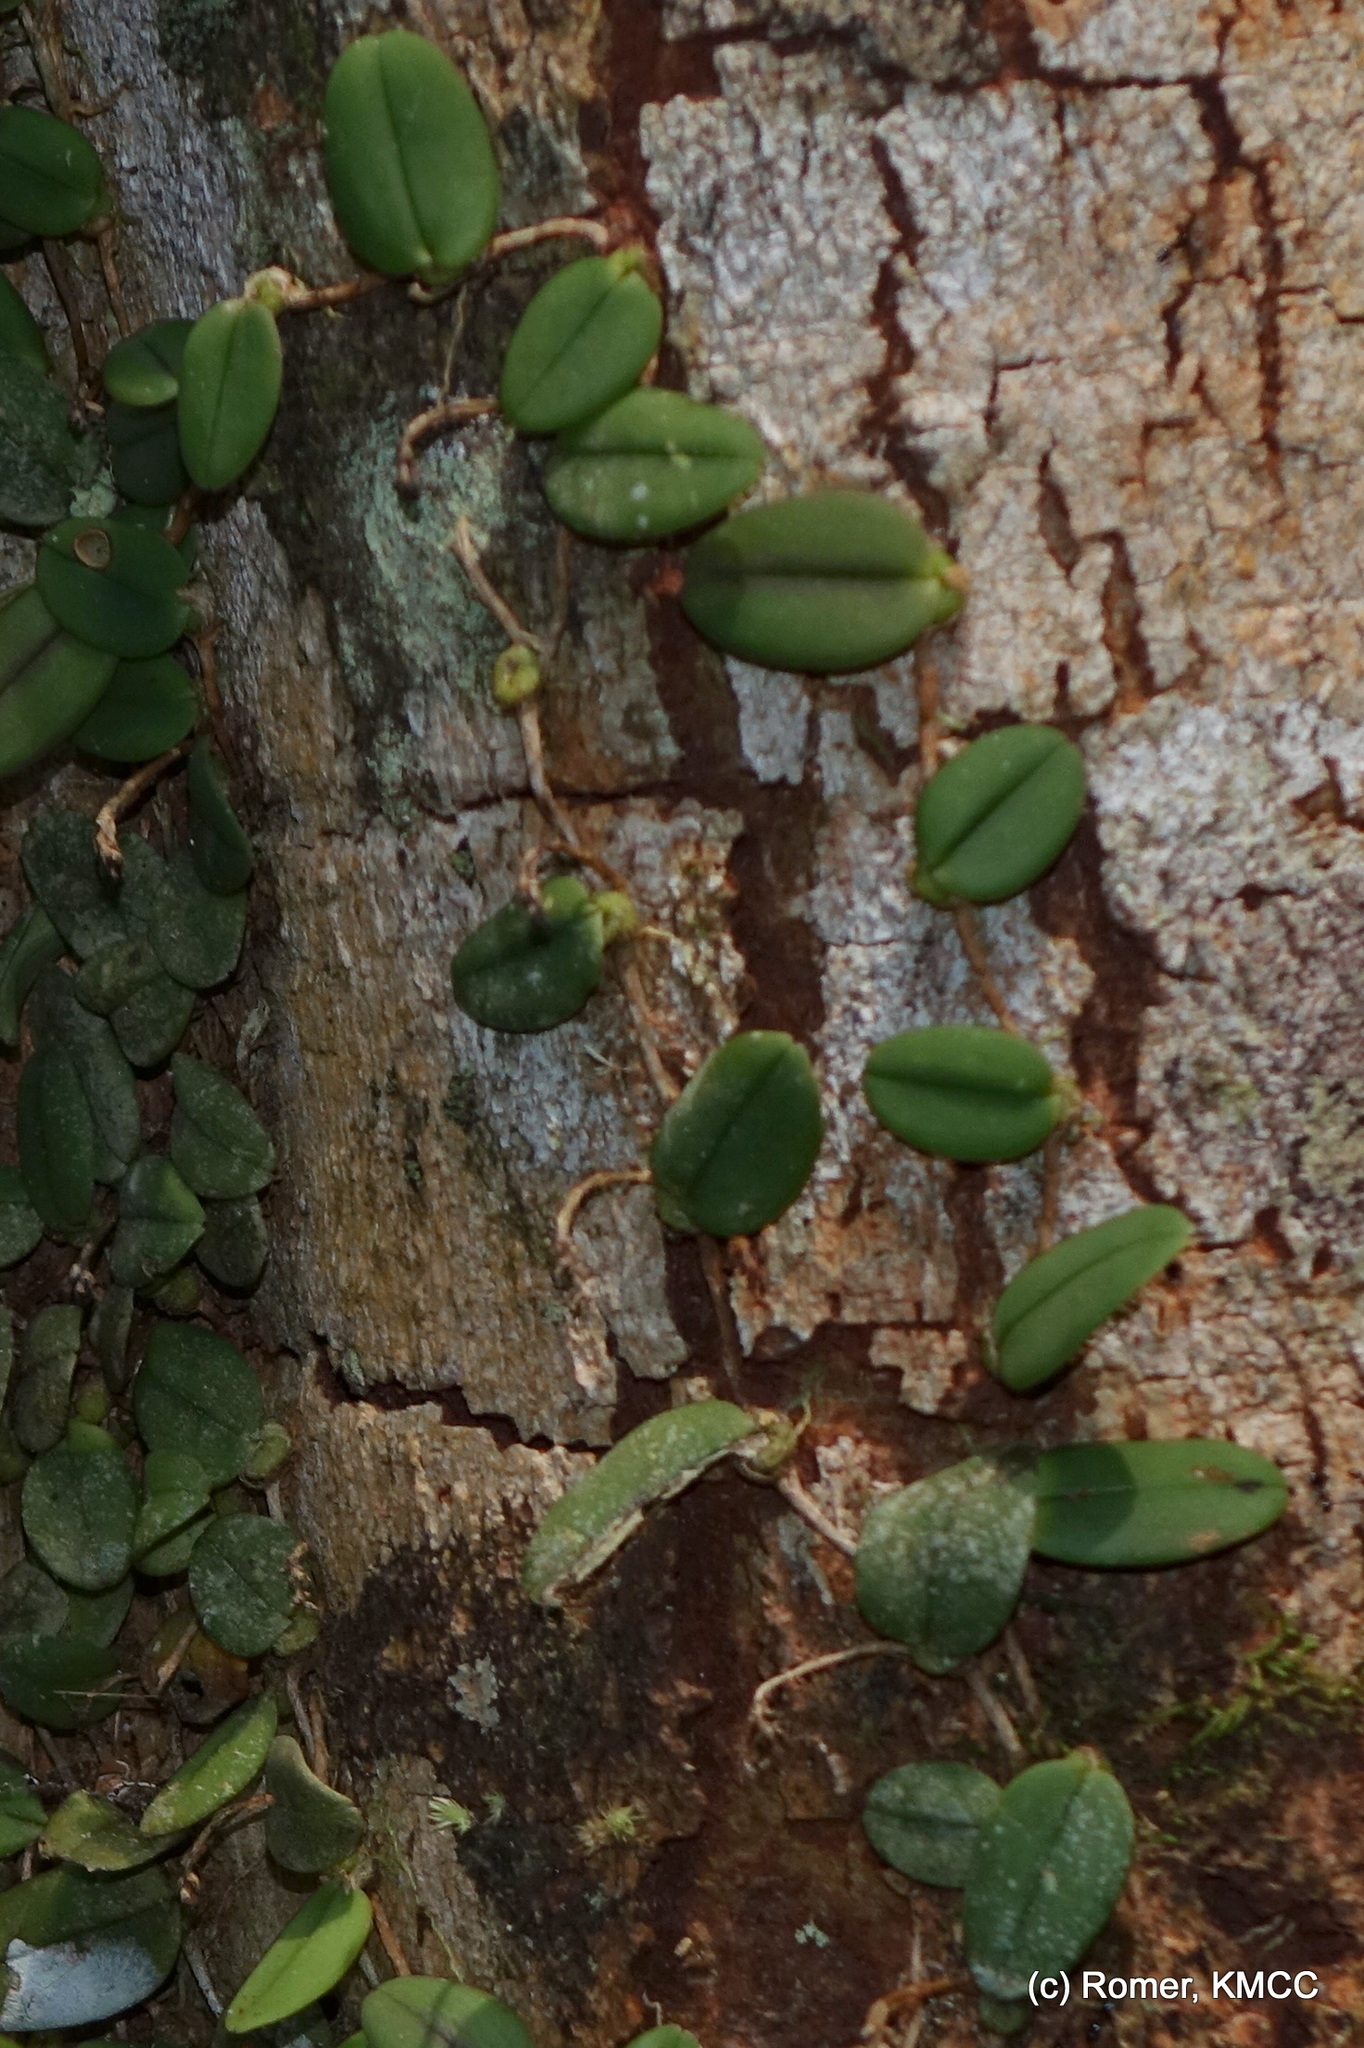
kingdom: Plantae
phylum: Tracheophyta
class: Liliopsida
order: Asparagales
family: Orchidaceae
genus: Bulbophyllum
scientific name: Bulbophyllum jackyi
